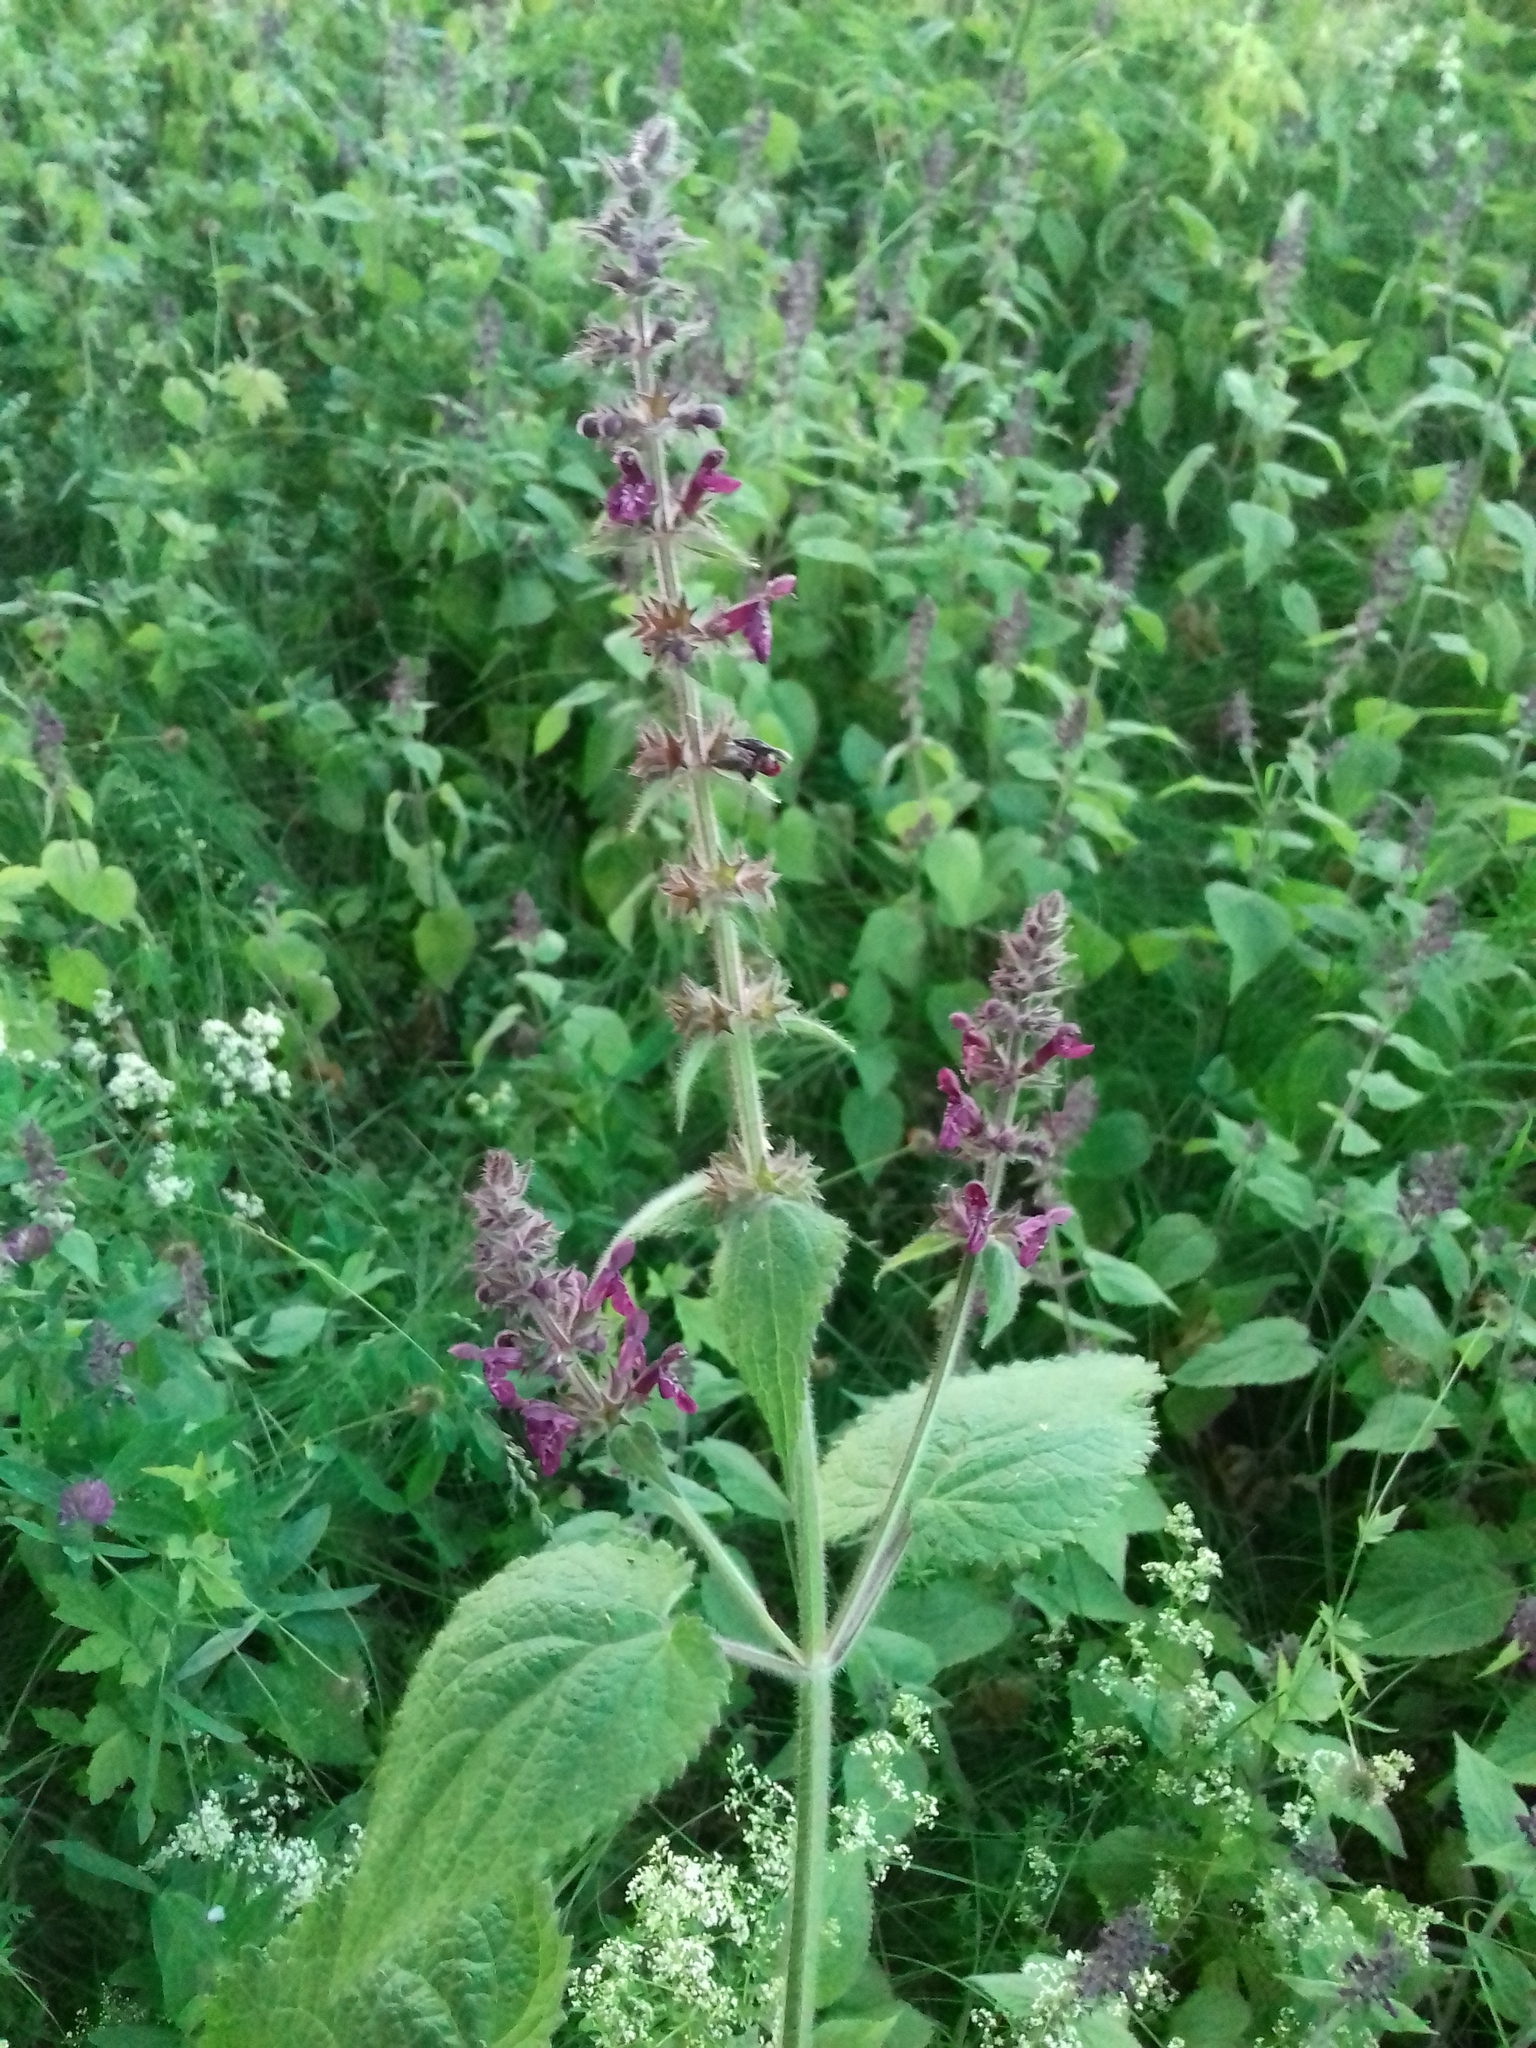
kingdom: Plantae
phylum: Tracheophyta
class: Magnoliopsida
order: Lamiales
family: Lamiaceae
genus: Stachys
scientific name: Stachys sylvatica
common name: Hedge woundwort
